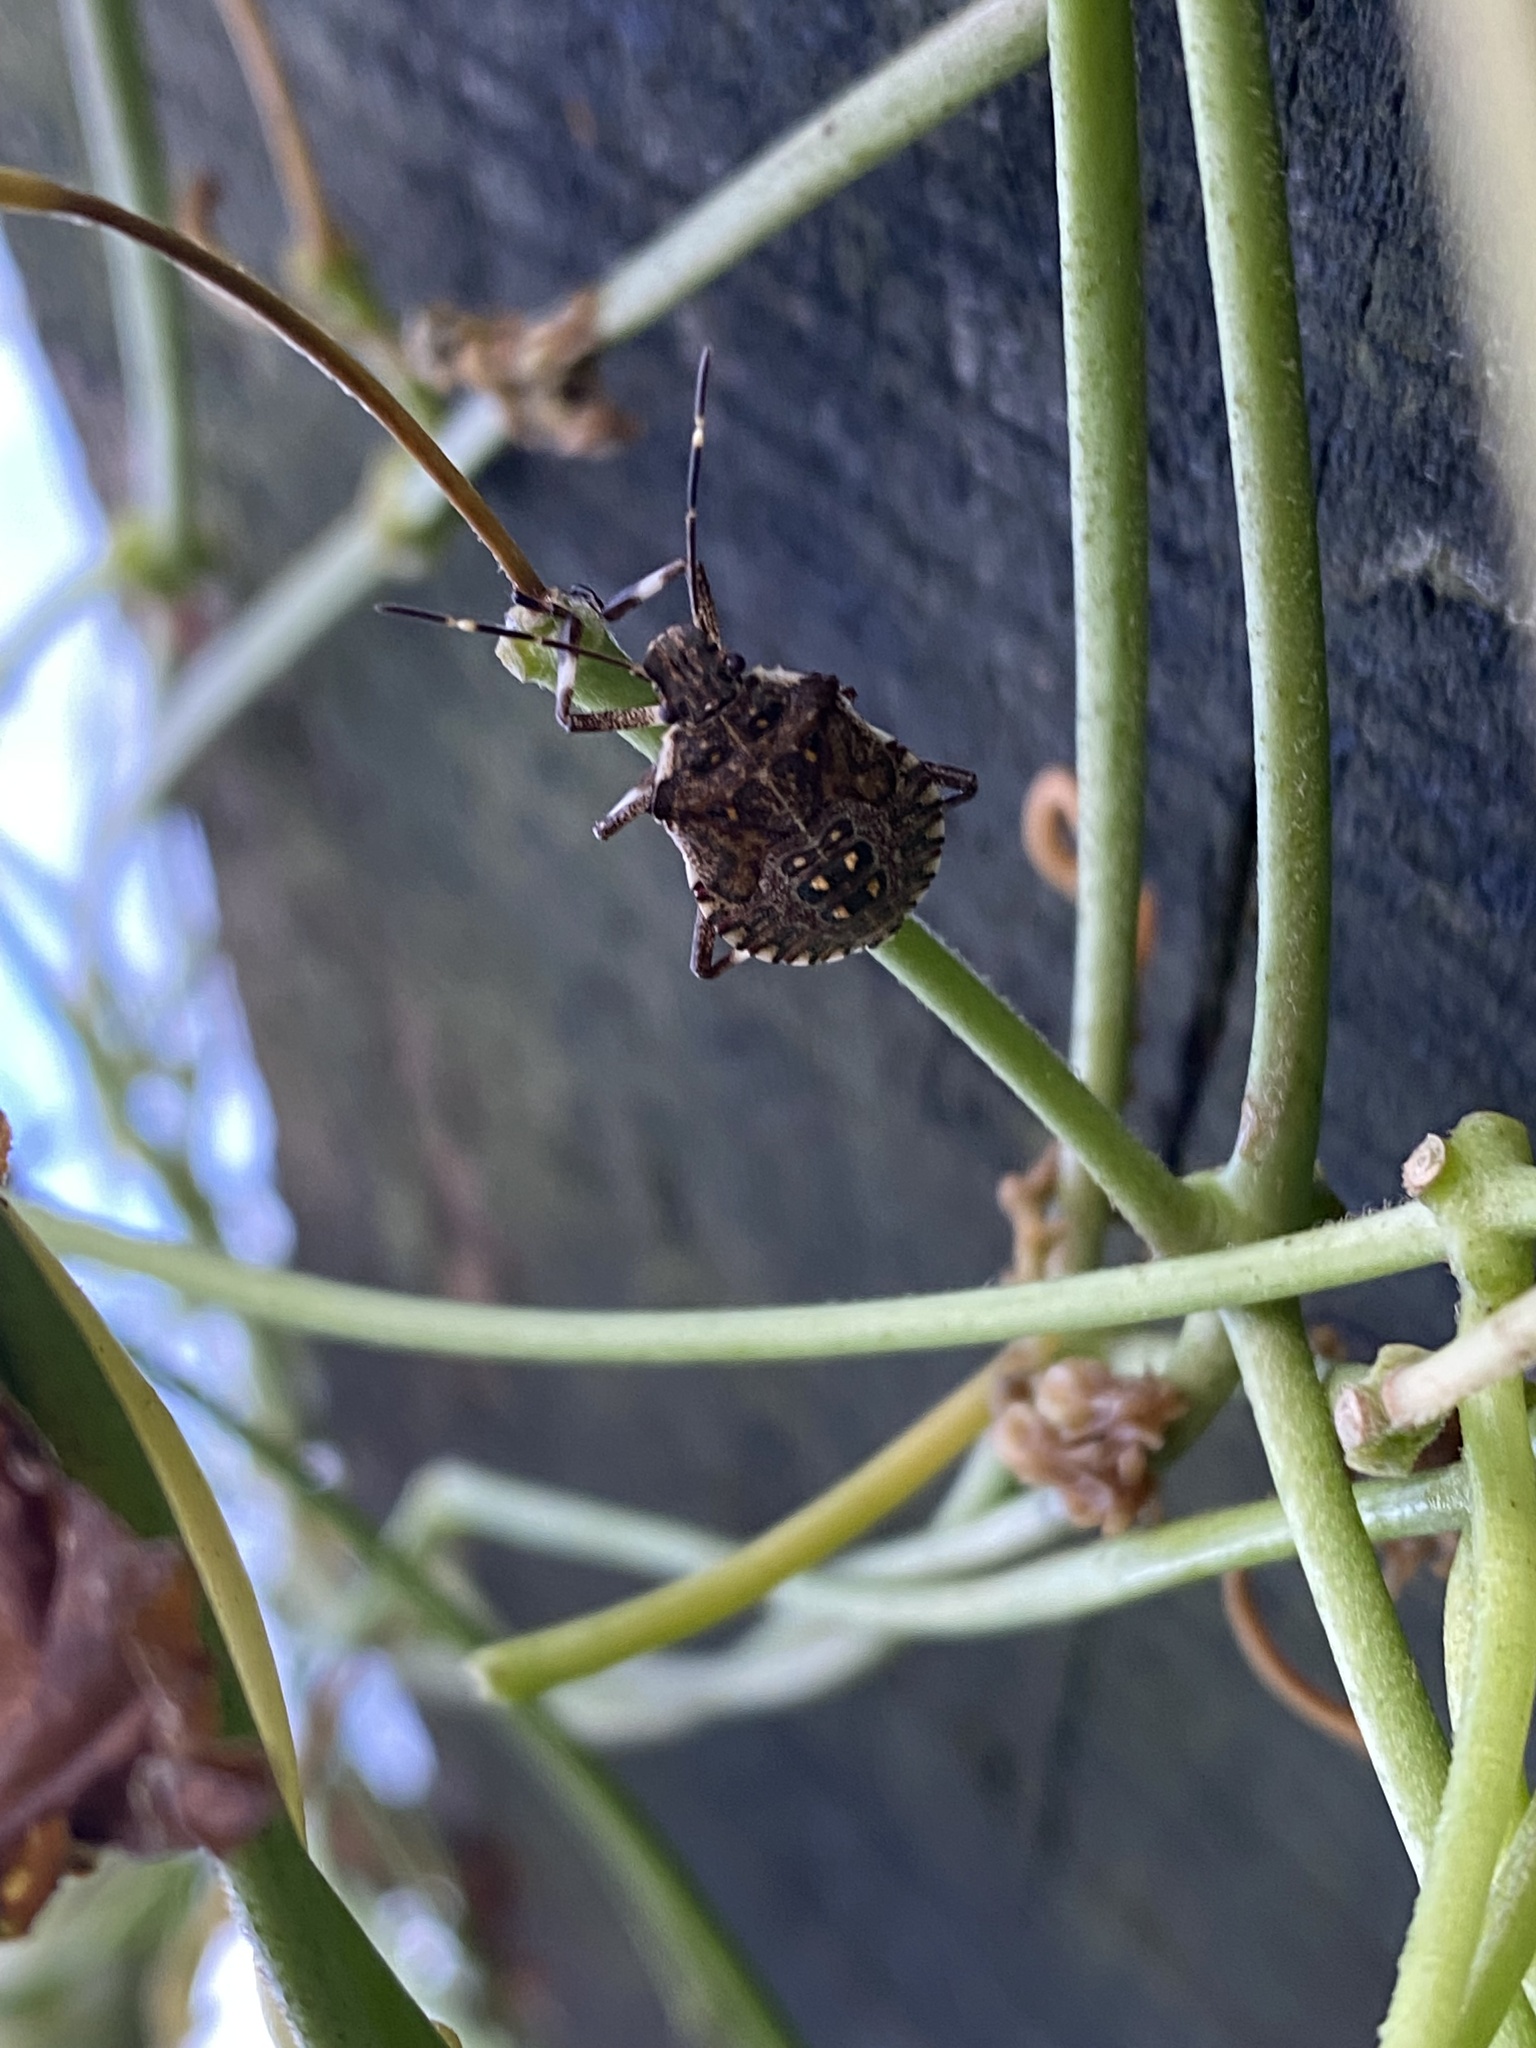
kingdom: Animalia
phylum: Arthropoda
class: Insecta
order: Hemiptera
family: Pentatomidae
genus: Halyomorpha
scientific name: Halyomorpha halys
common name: Brown marmorated stink bug
